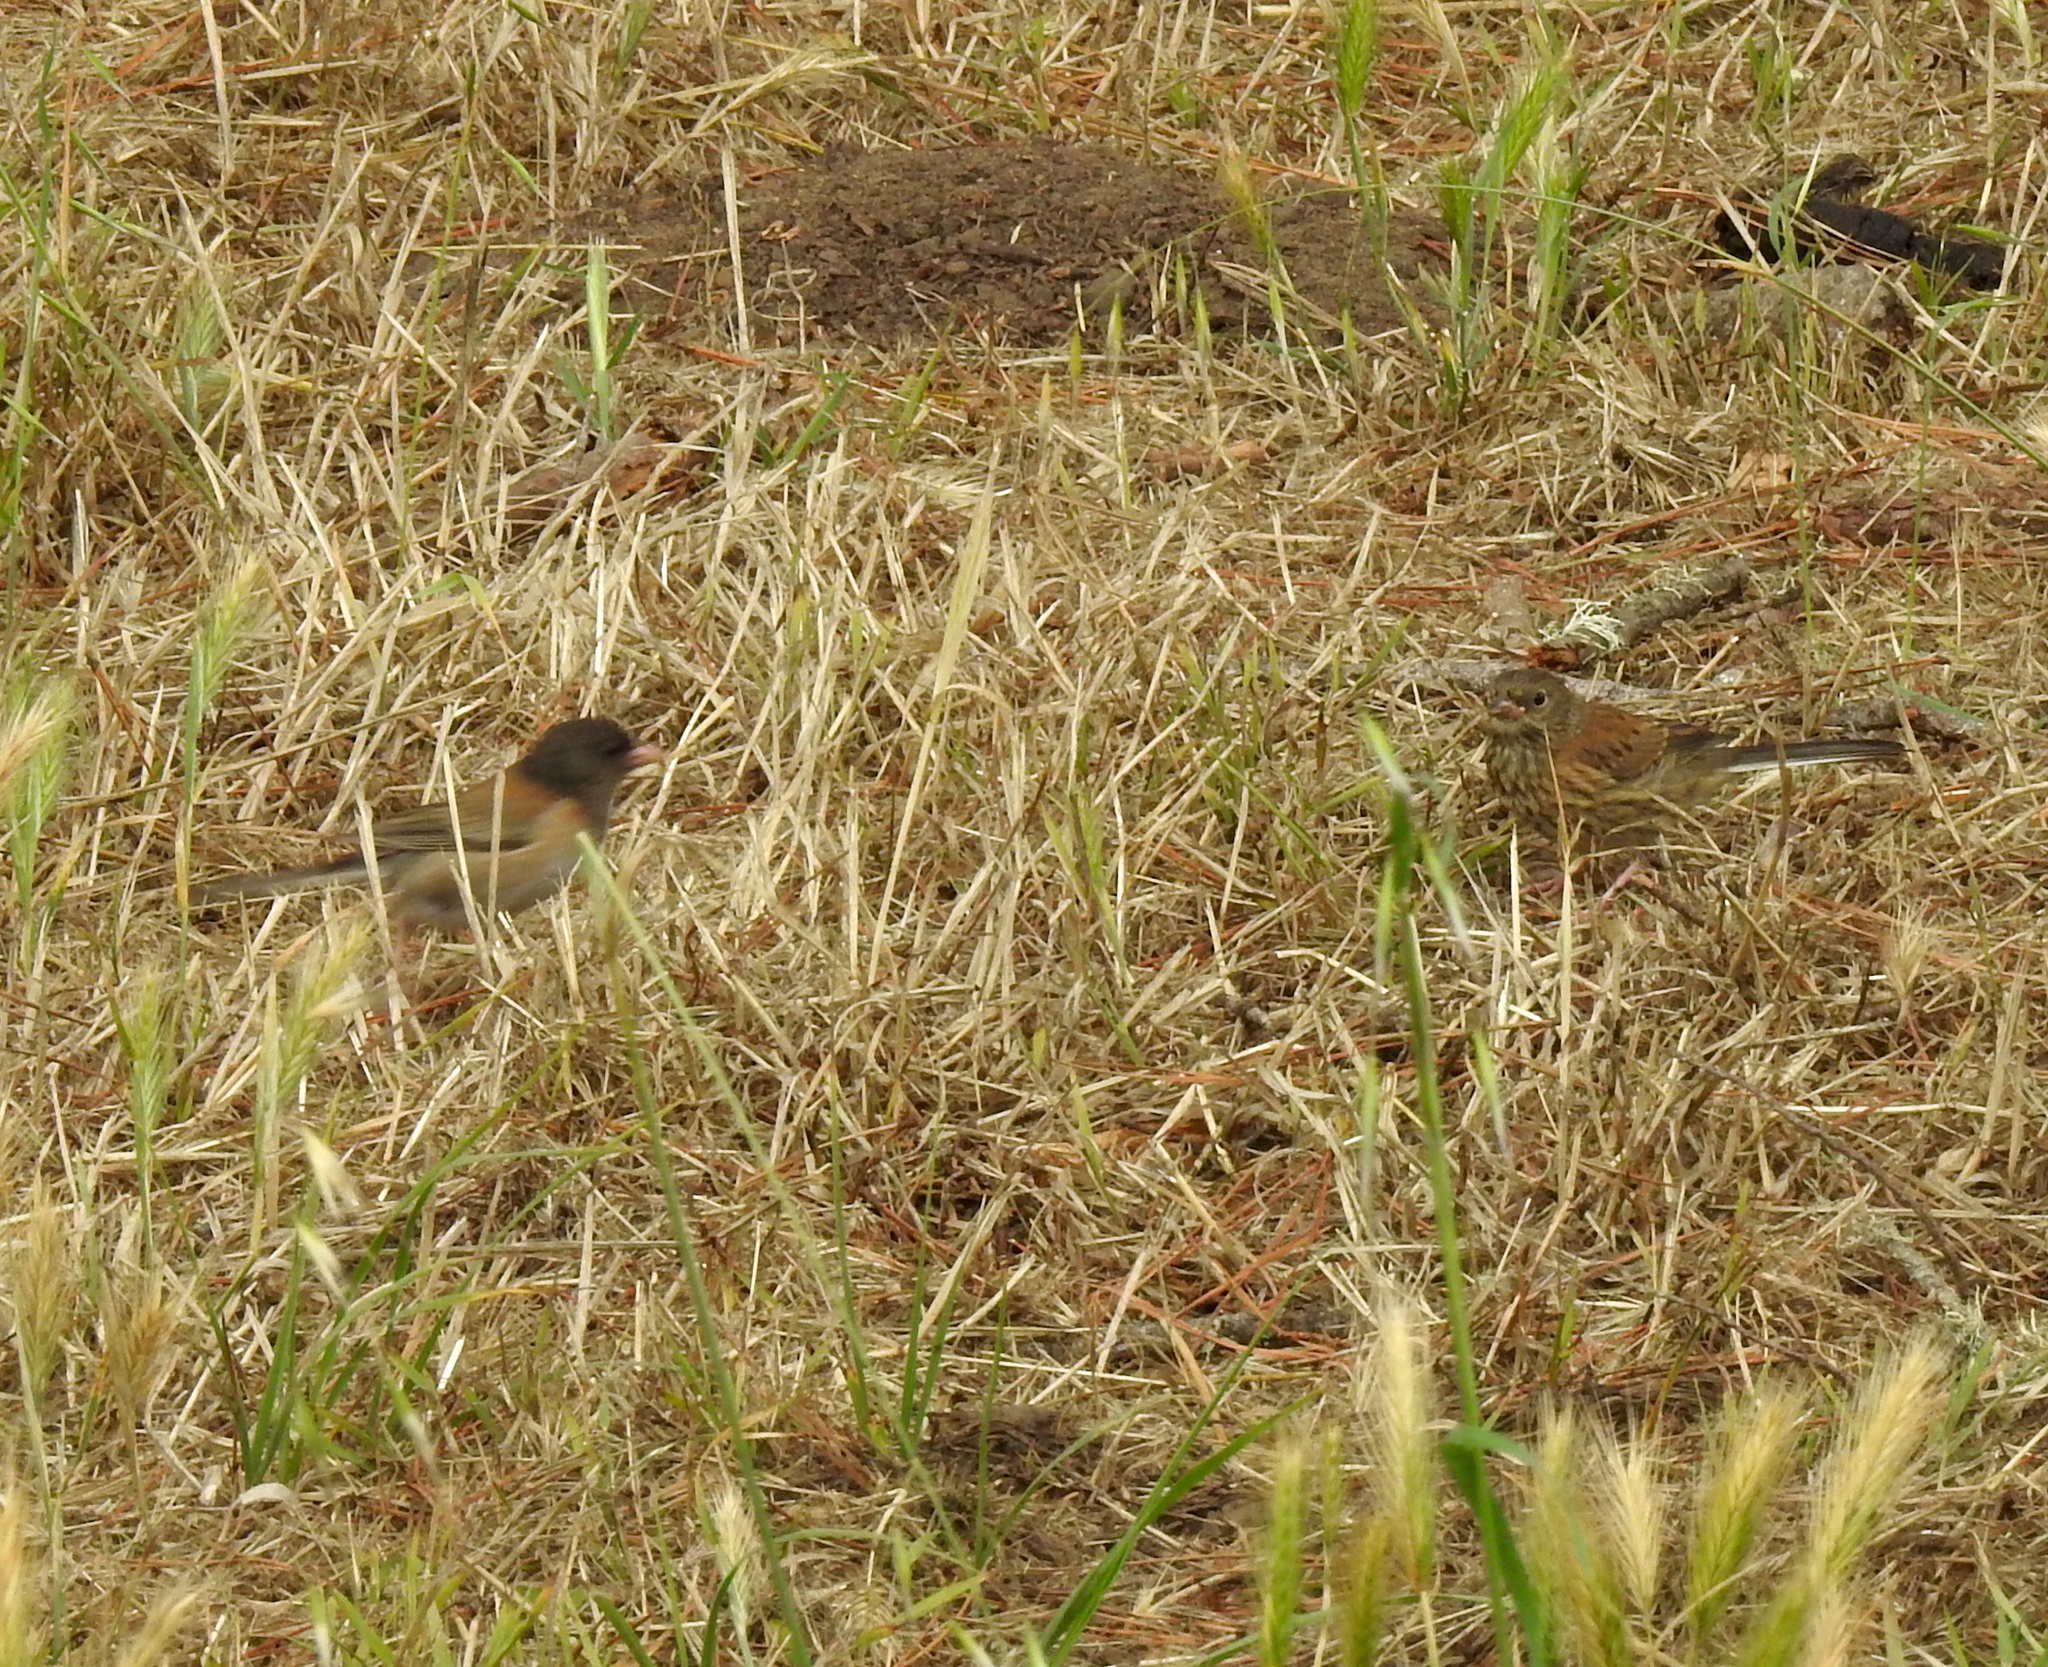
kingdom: Animalia
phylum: Chordata
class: Aves
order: Passeriformes
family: Passerellidae
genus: Junco
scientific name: Junco hyemalis
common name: Dark-eyed junco
